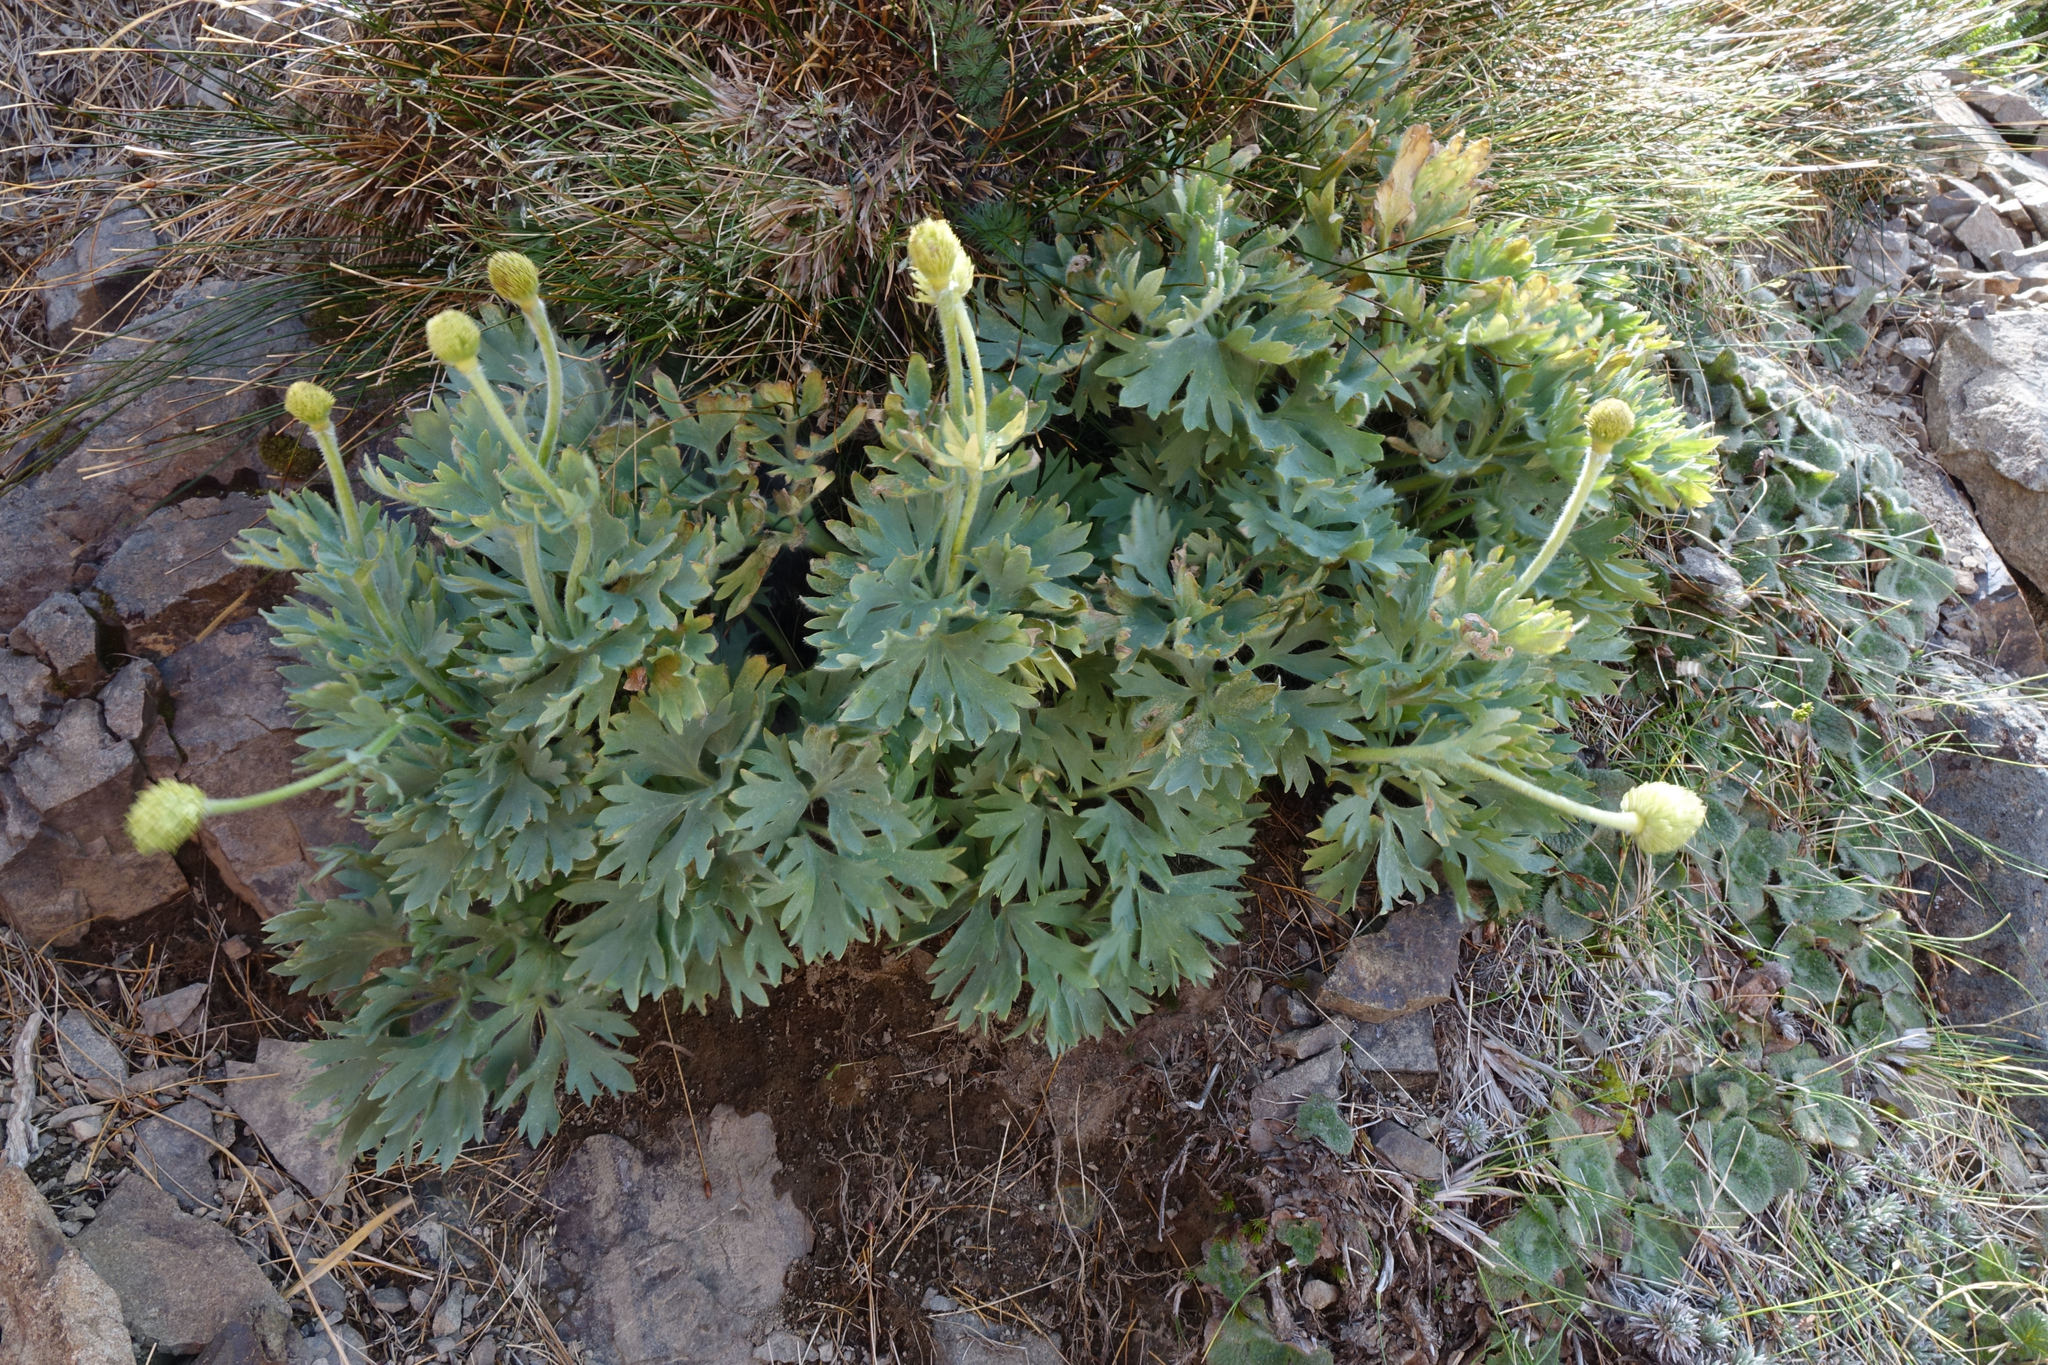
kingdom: Plantae
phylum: Tracheophyta
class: Magnoliopsida
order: Ranunculales
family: Ranunculaceae
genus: Ranunculus
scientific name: Ranunculus buchananii
